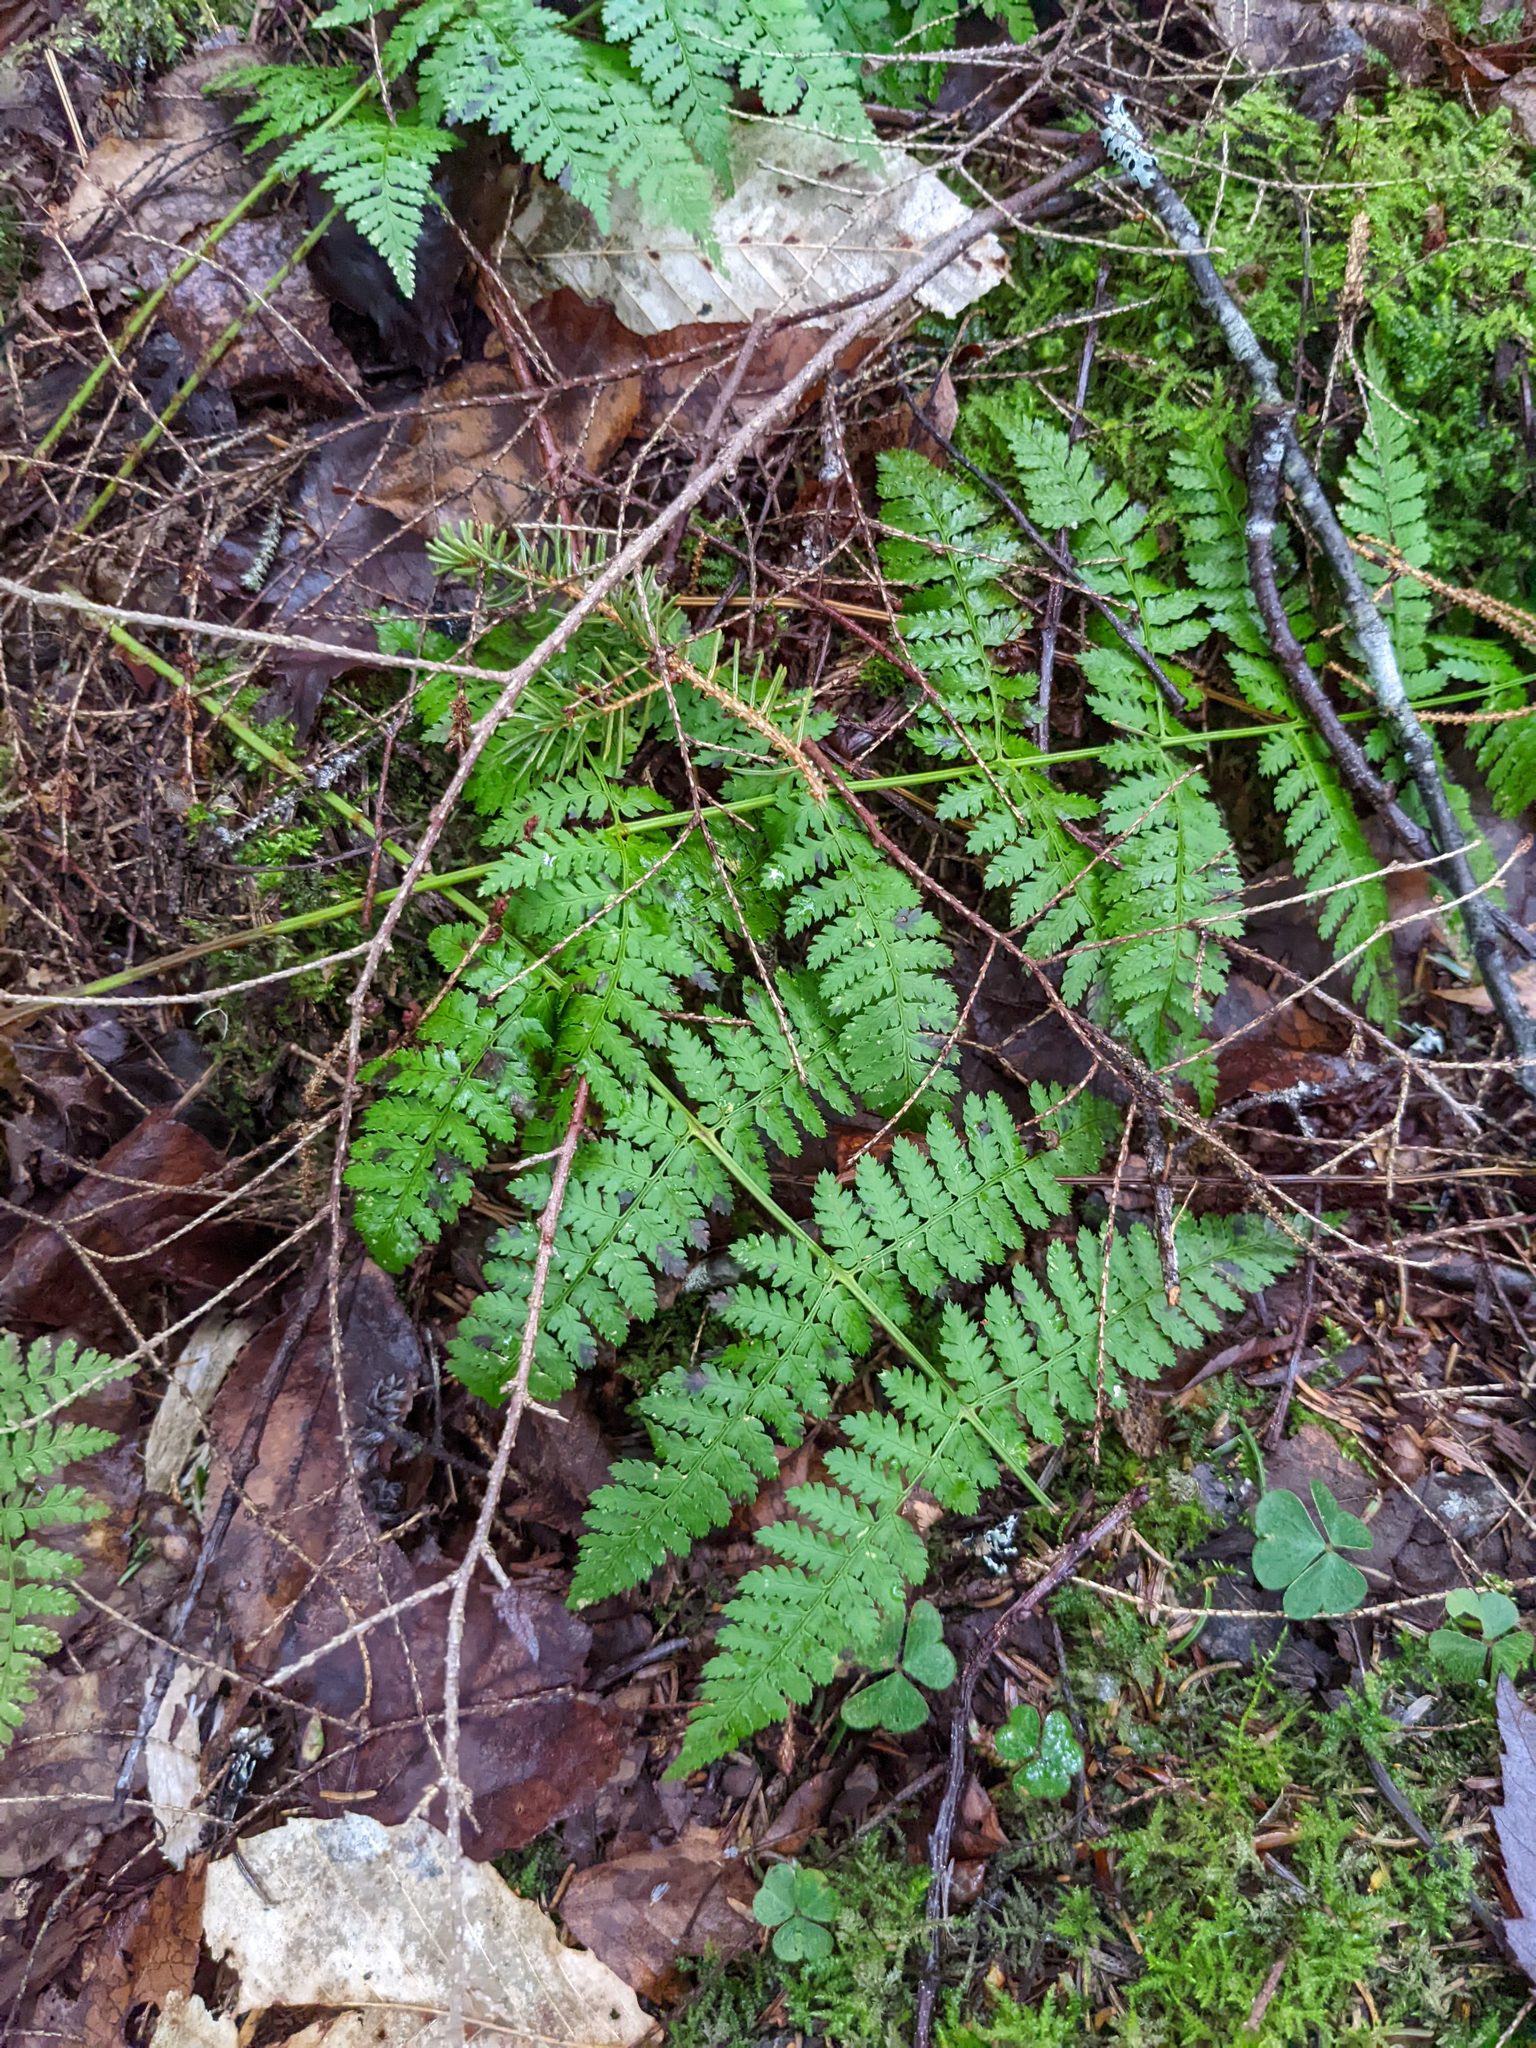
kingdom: Plantae
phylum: Tracheophyta
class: Polypodiopsida
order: Polypodiales
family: Dryopteridaceae
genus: Dryopteris
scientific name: Dryopteris intermedia
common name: Evergreen wood fern
